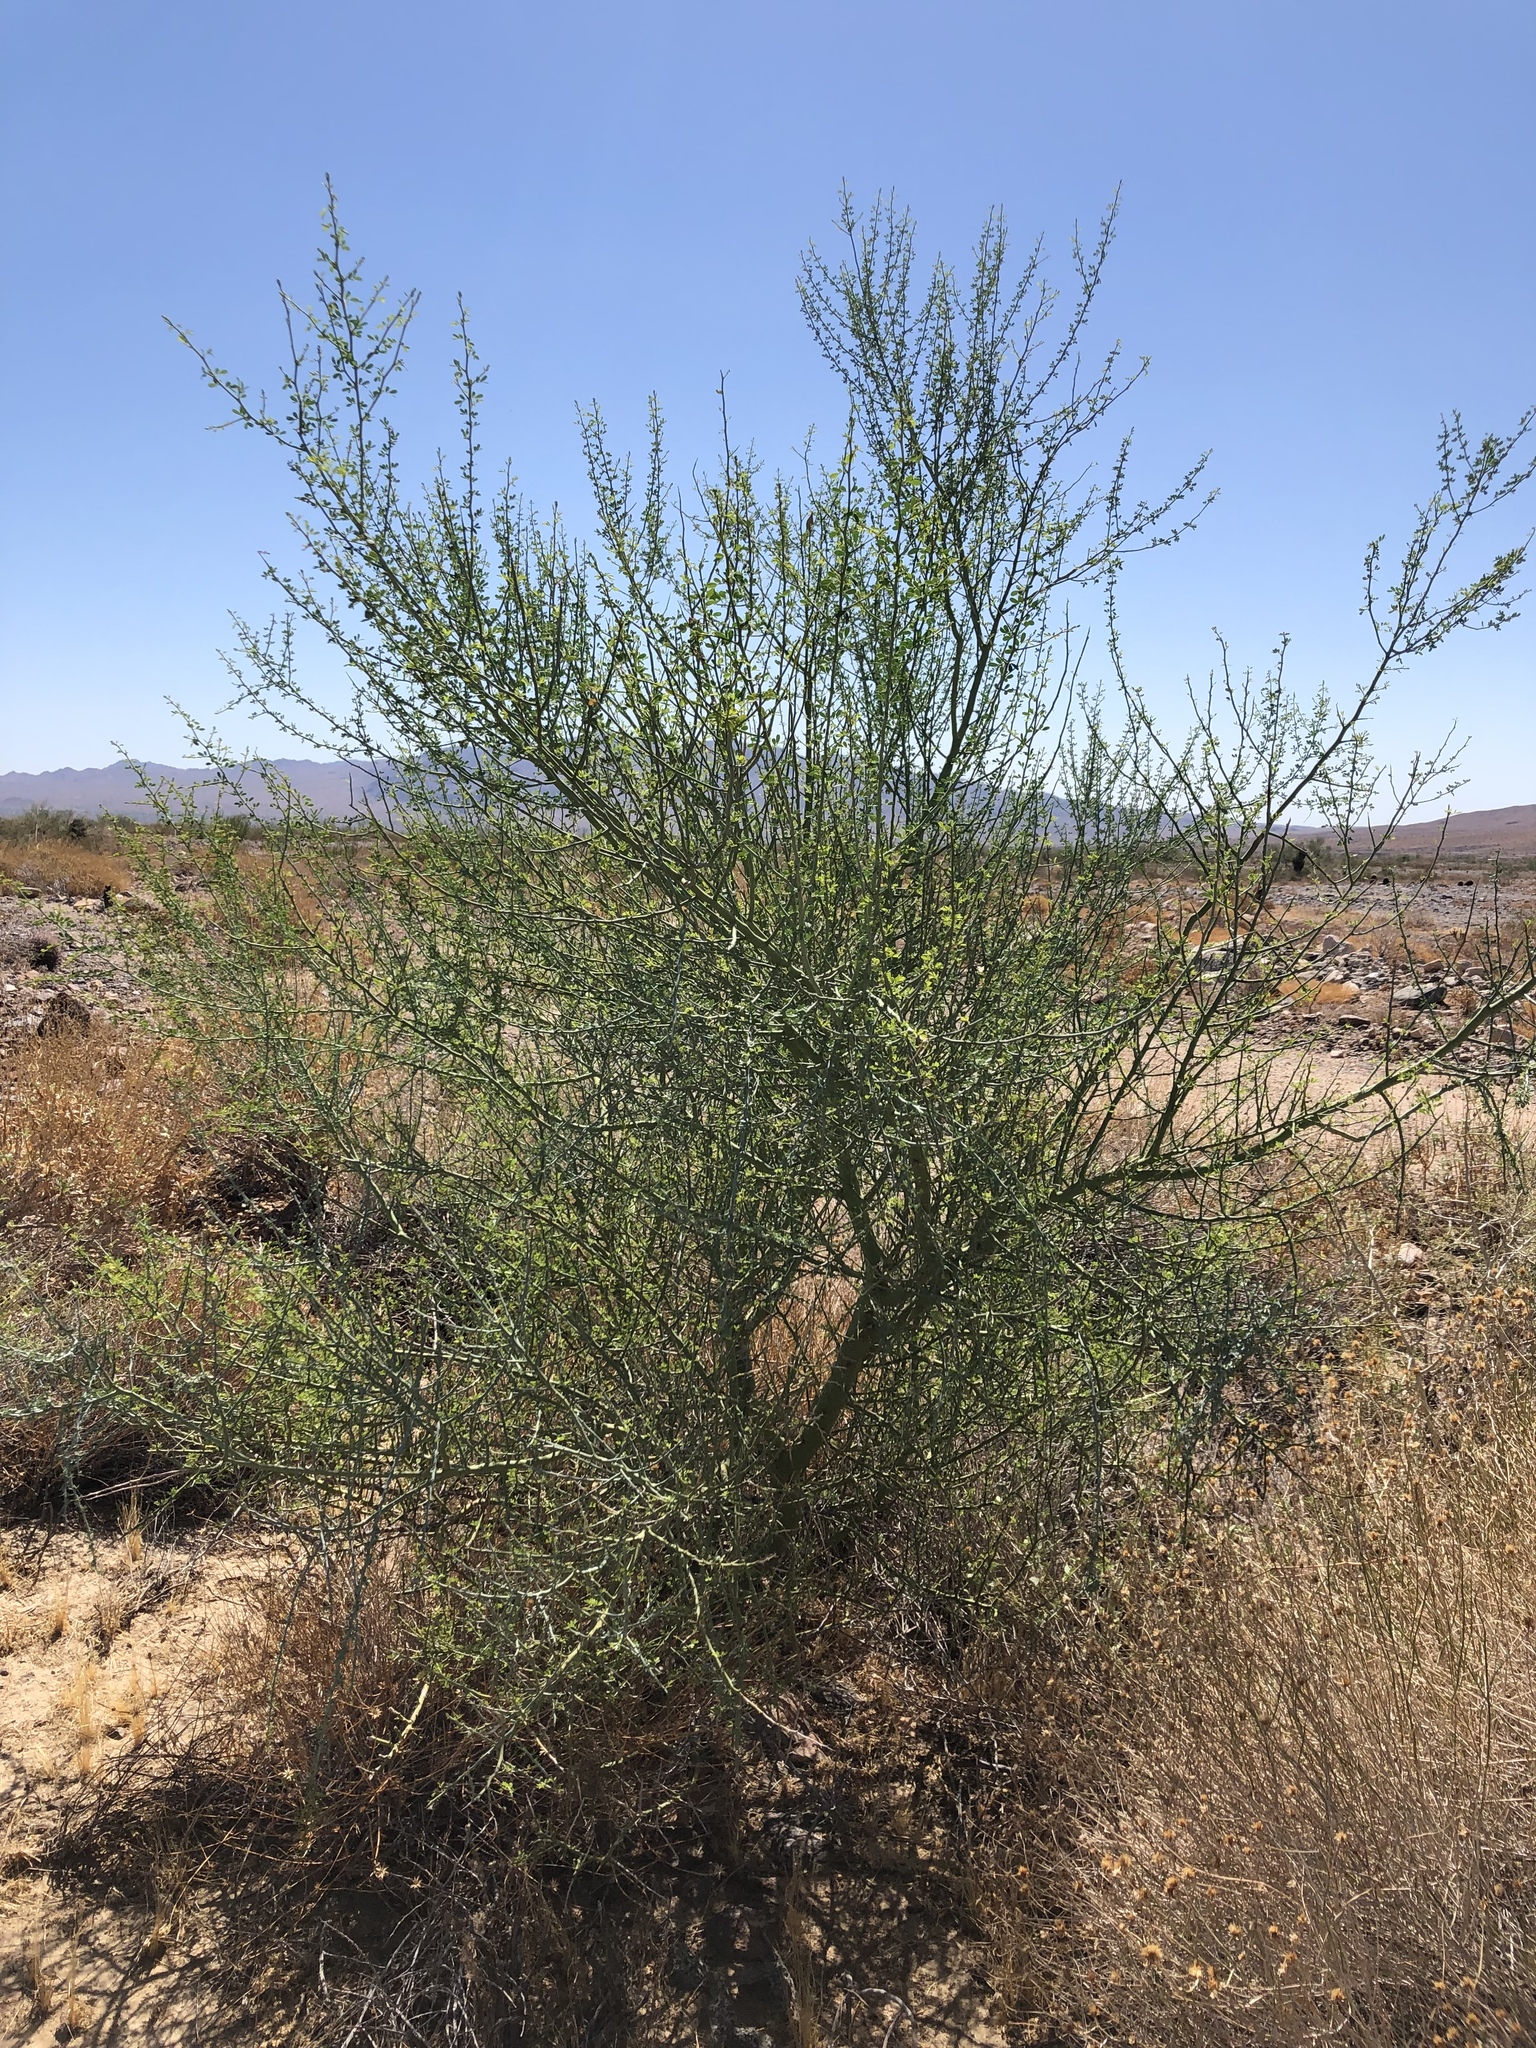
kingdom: Plantae
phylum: Tracheophyta
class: Magnoliopsida
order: Fabales
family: Fabaceae
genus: Parkinsonia
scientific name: Parkinsonia florida
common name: Blue paloverde
